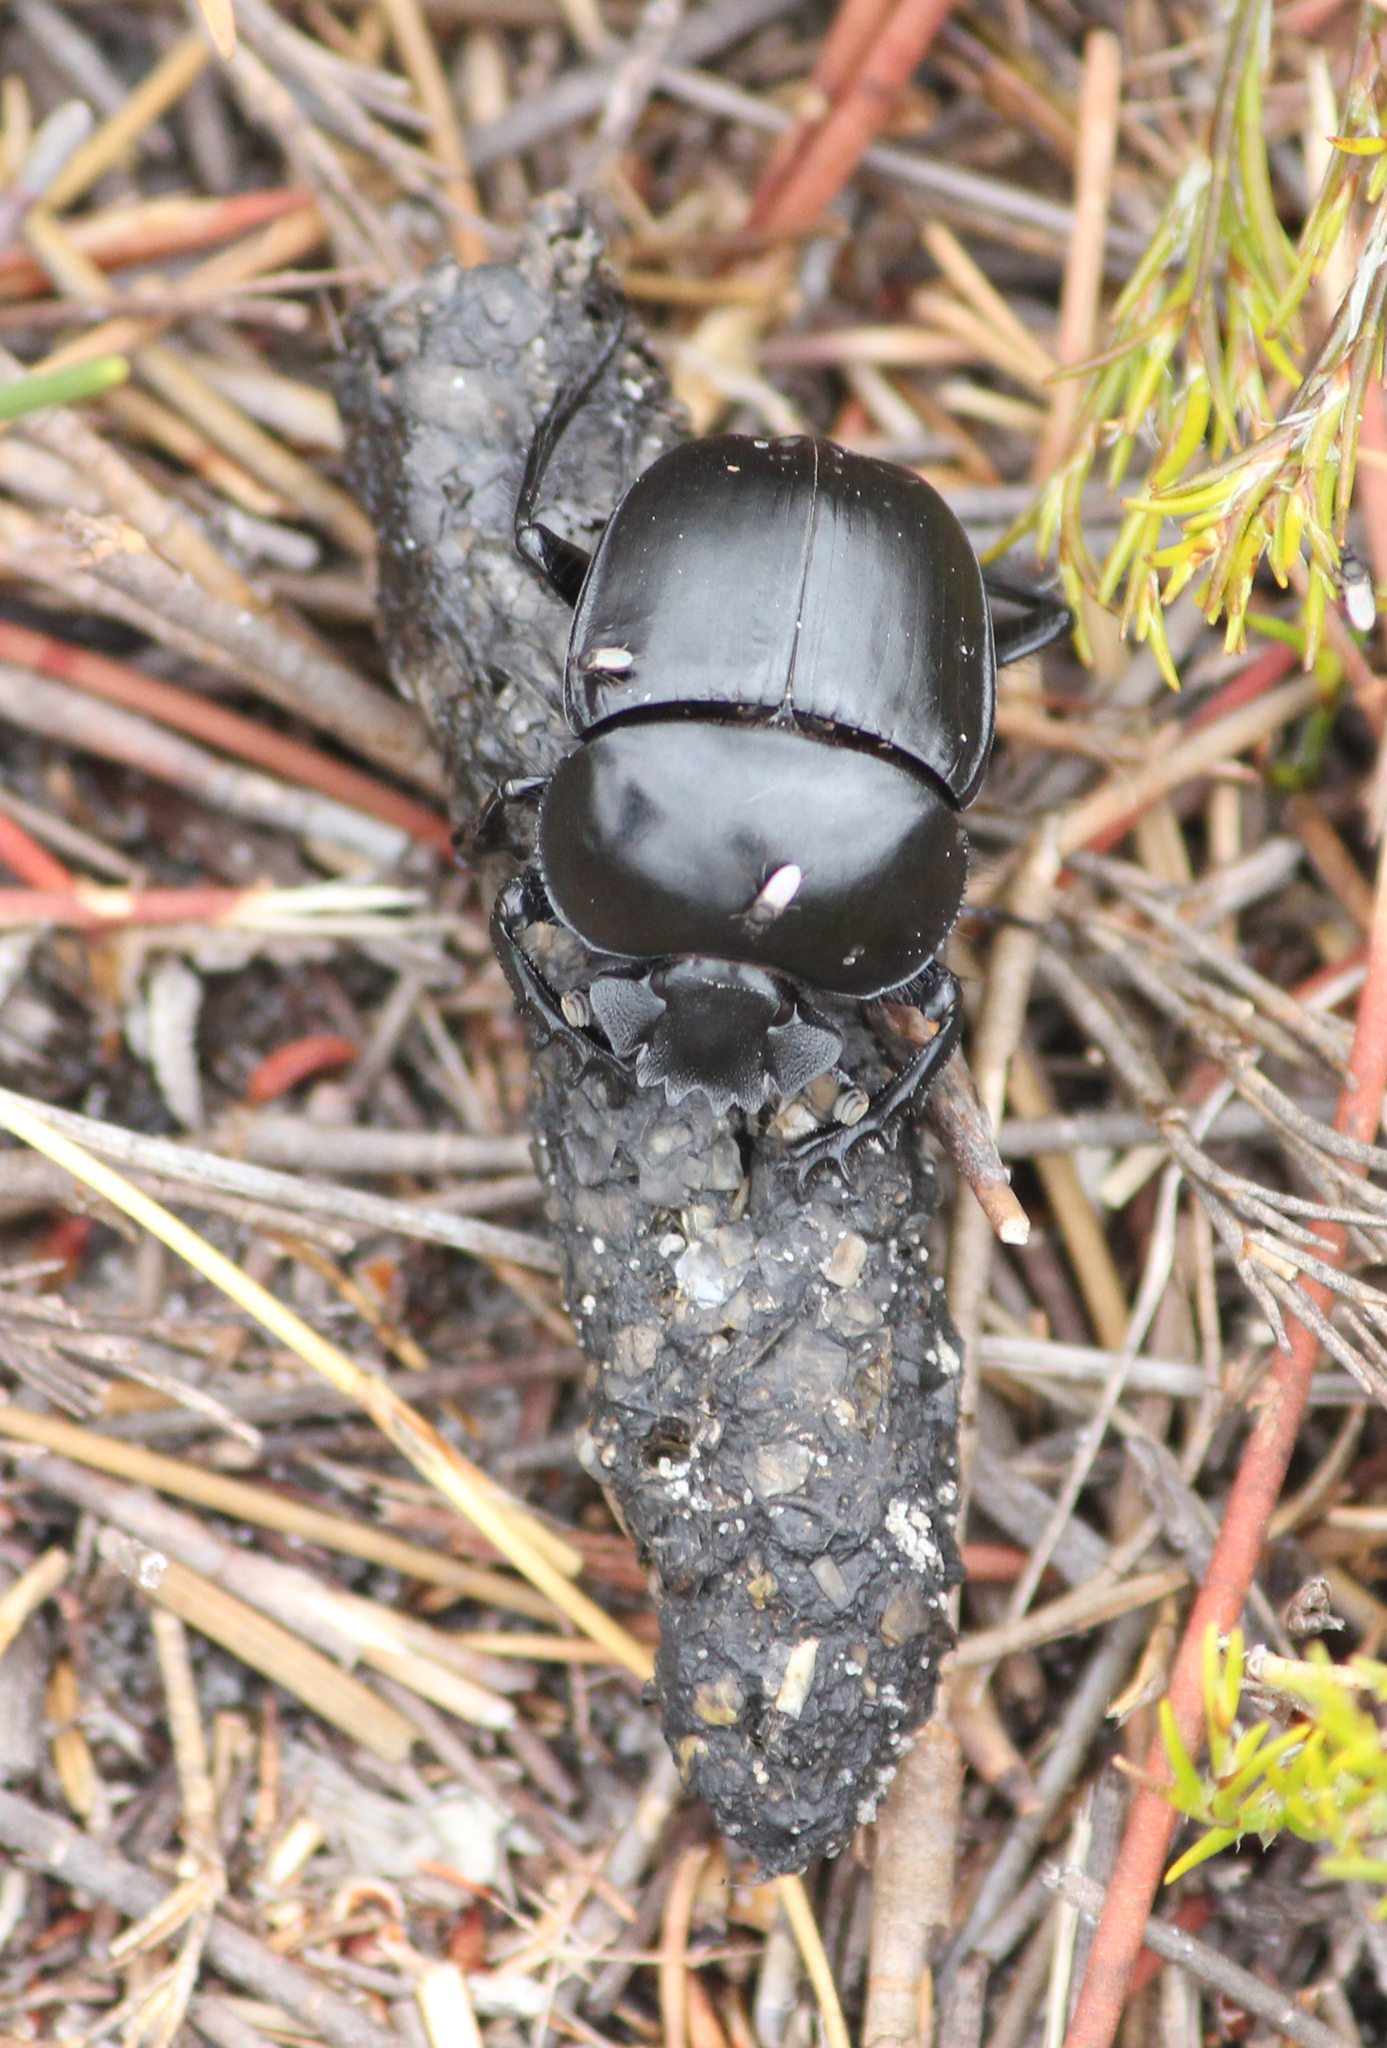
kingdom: Animalia
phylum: Arthropoda
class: Insecta
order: Coleoptera
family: Scarabaeidae
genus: Scarabaeus
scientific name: Scarabaeus convexus
